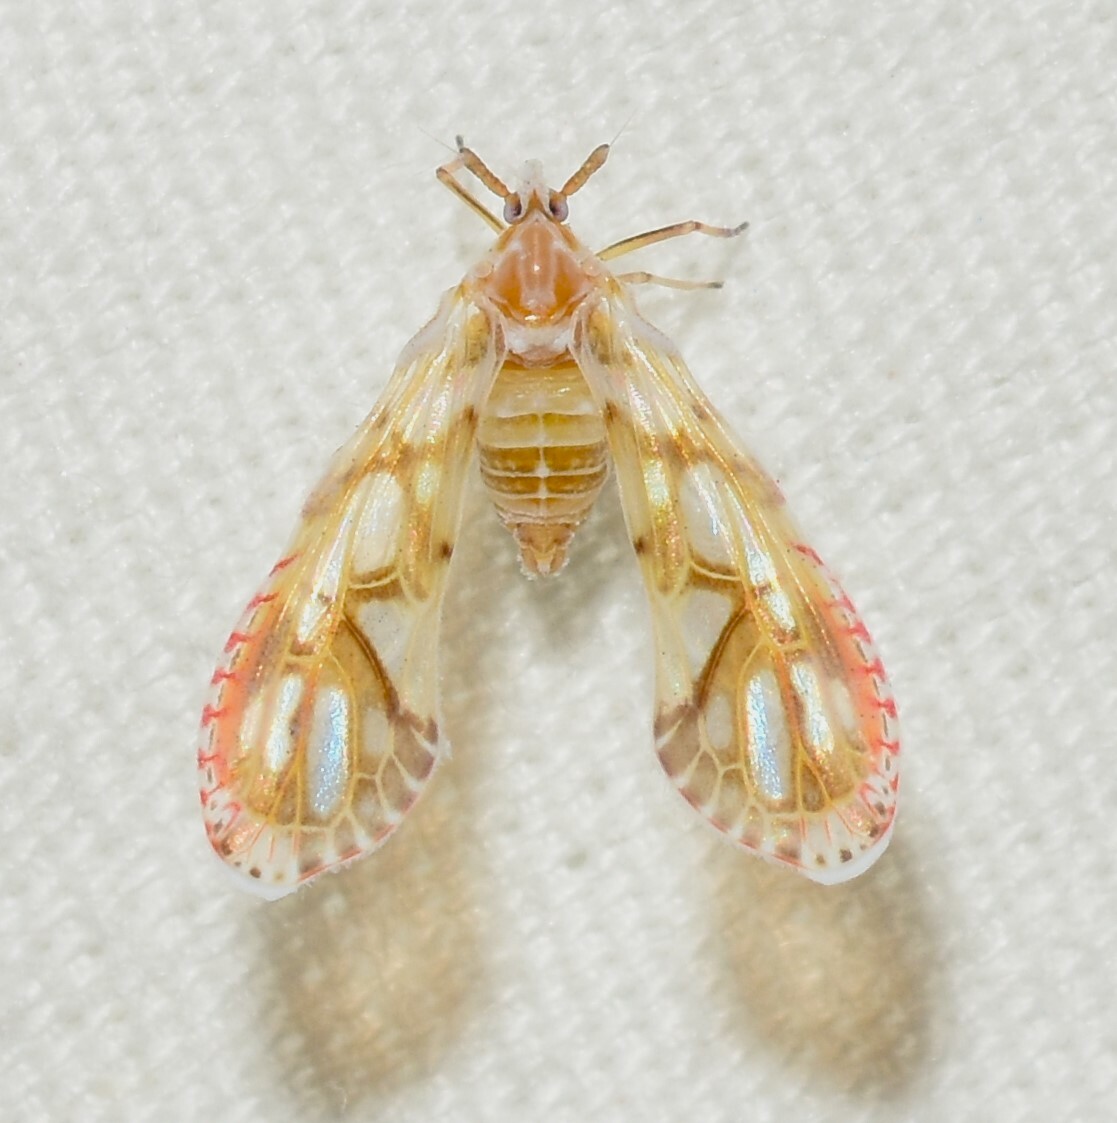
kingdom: Animalia
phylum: Arthropoda
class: Insecta
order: Hemiptera
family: Derbidae
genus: Anotia
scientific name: Anotia kirkaldyi
